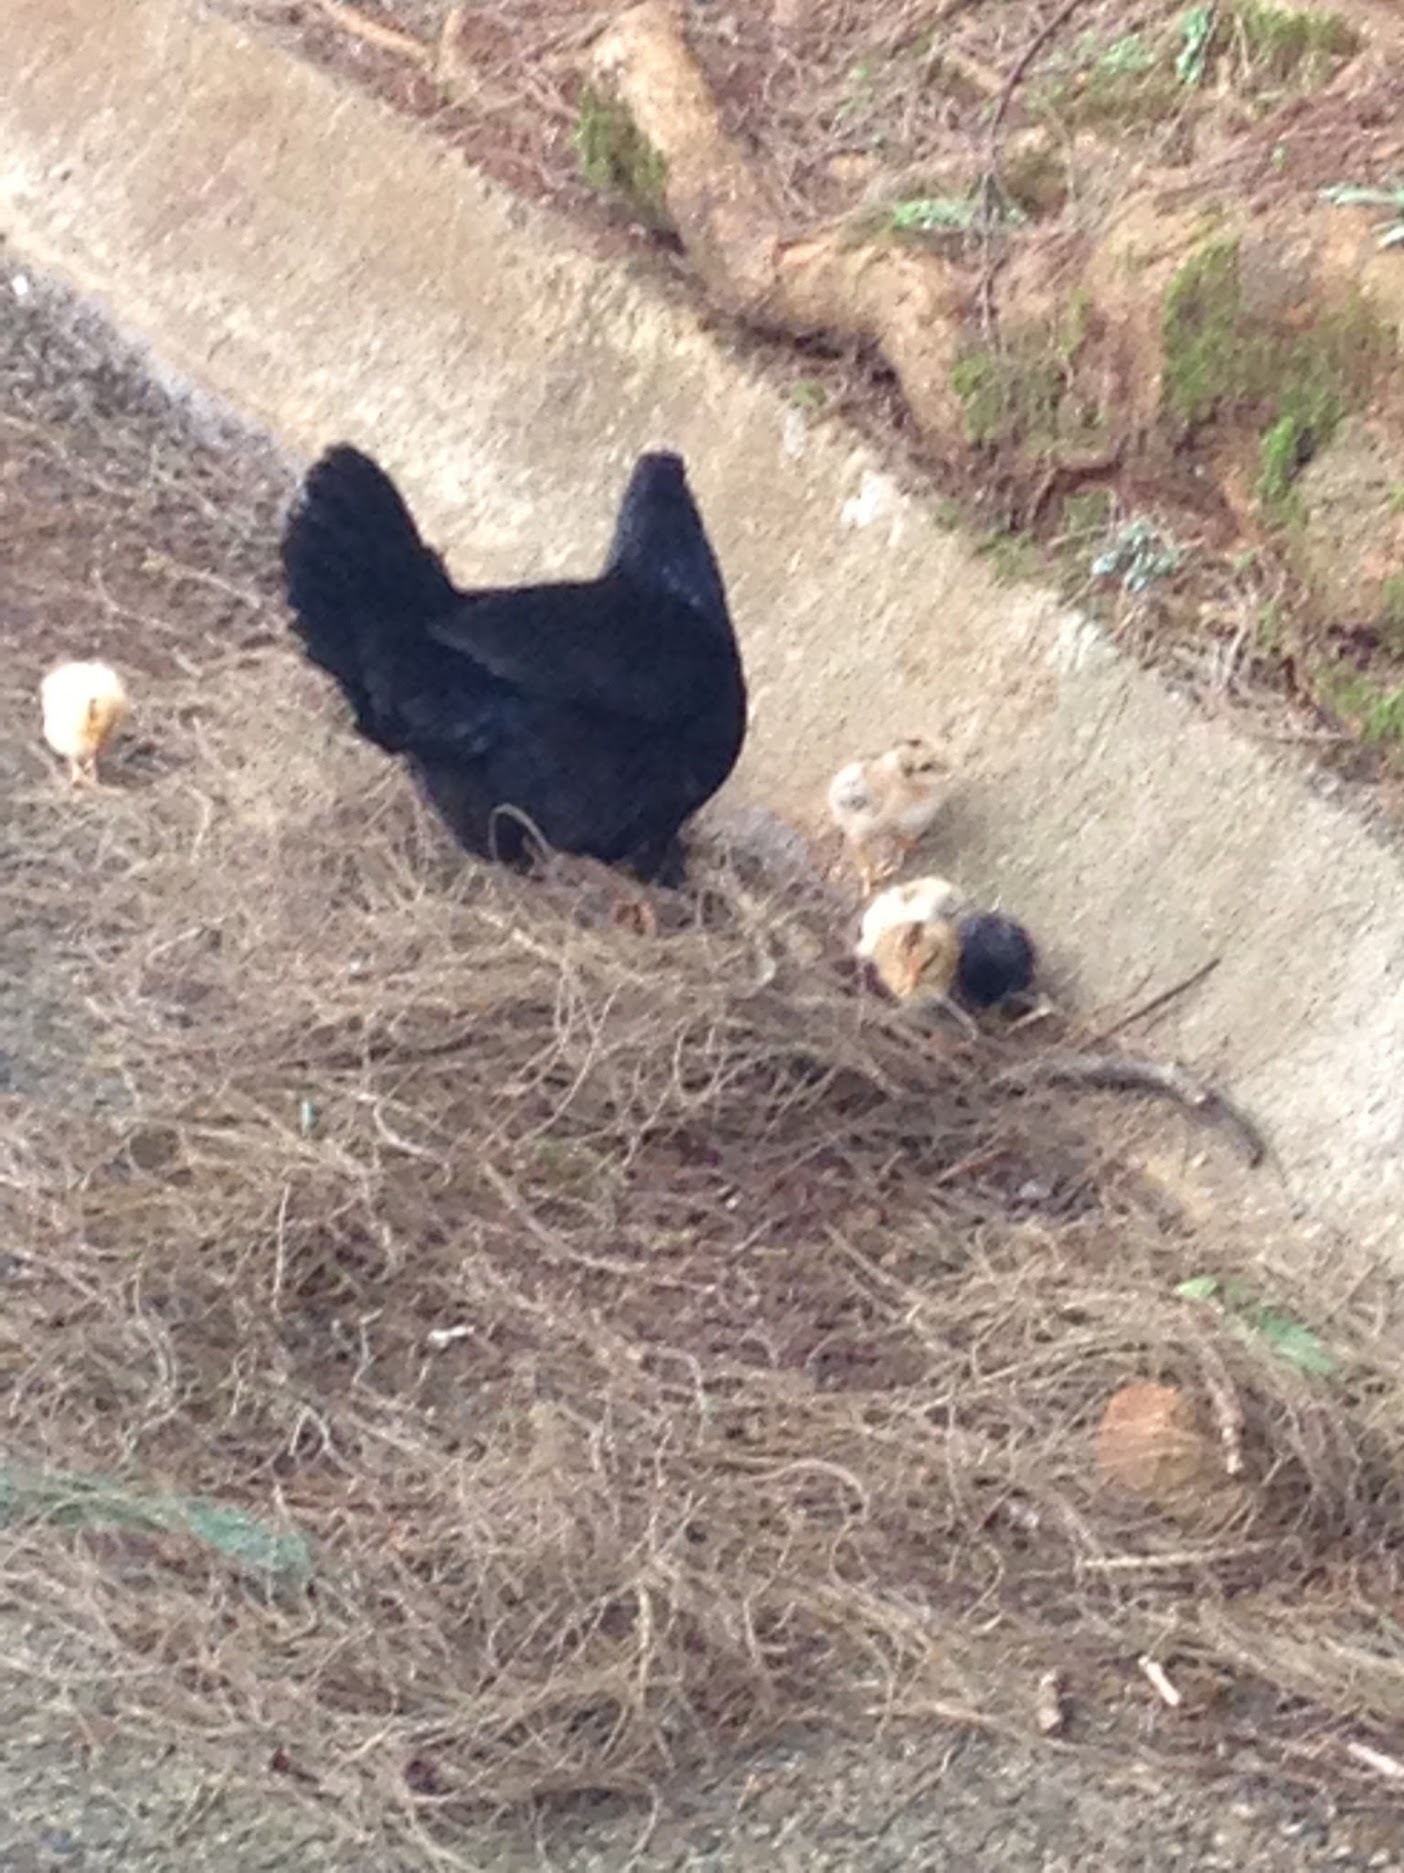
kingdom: Animalia
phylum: Chordata
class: Aves
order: Galliformes
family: Phasianidae
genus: Gallus
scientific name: Gallus gallus
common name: Red junglefowl
